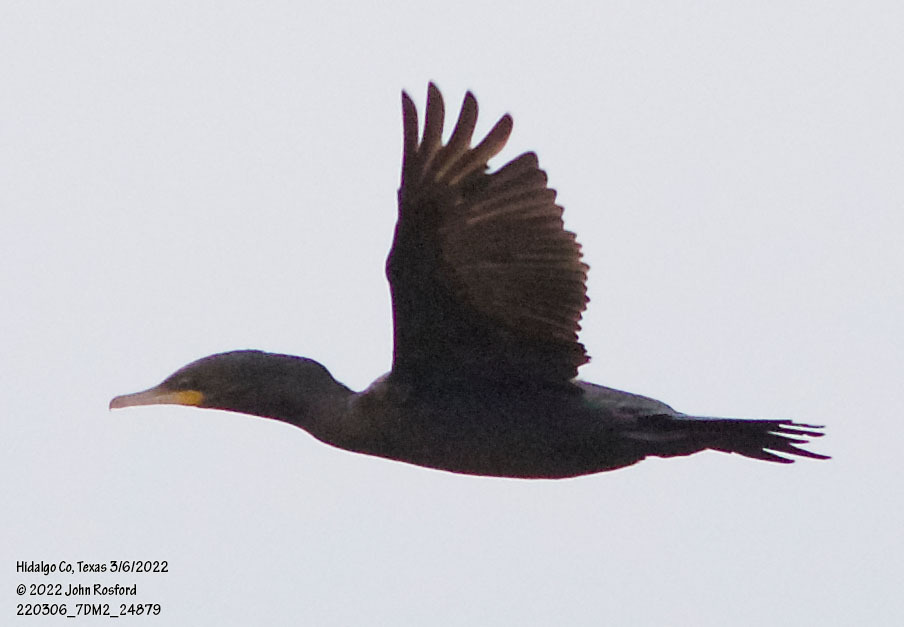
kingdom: Animalia
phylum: Chordata
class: Aves
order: Suliformes
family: Phalacrocoracidae
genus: Phalacrocorax
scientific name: Phalacrocorax auritus
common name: Double-crested cormorant
